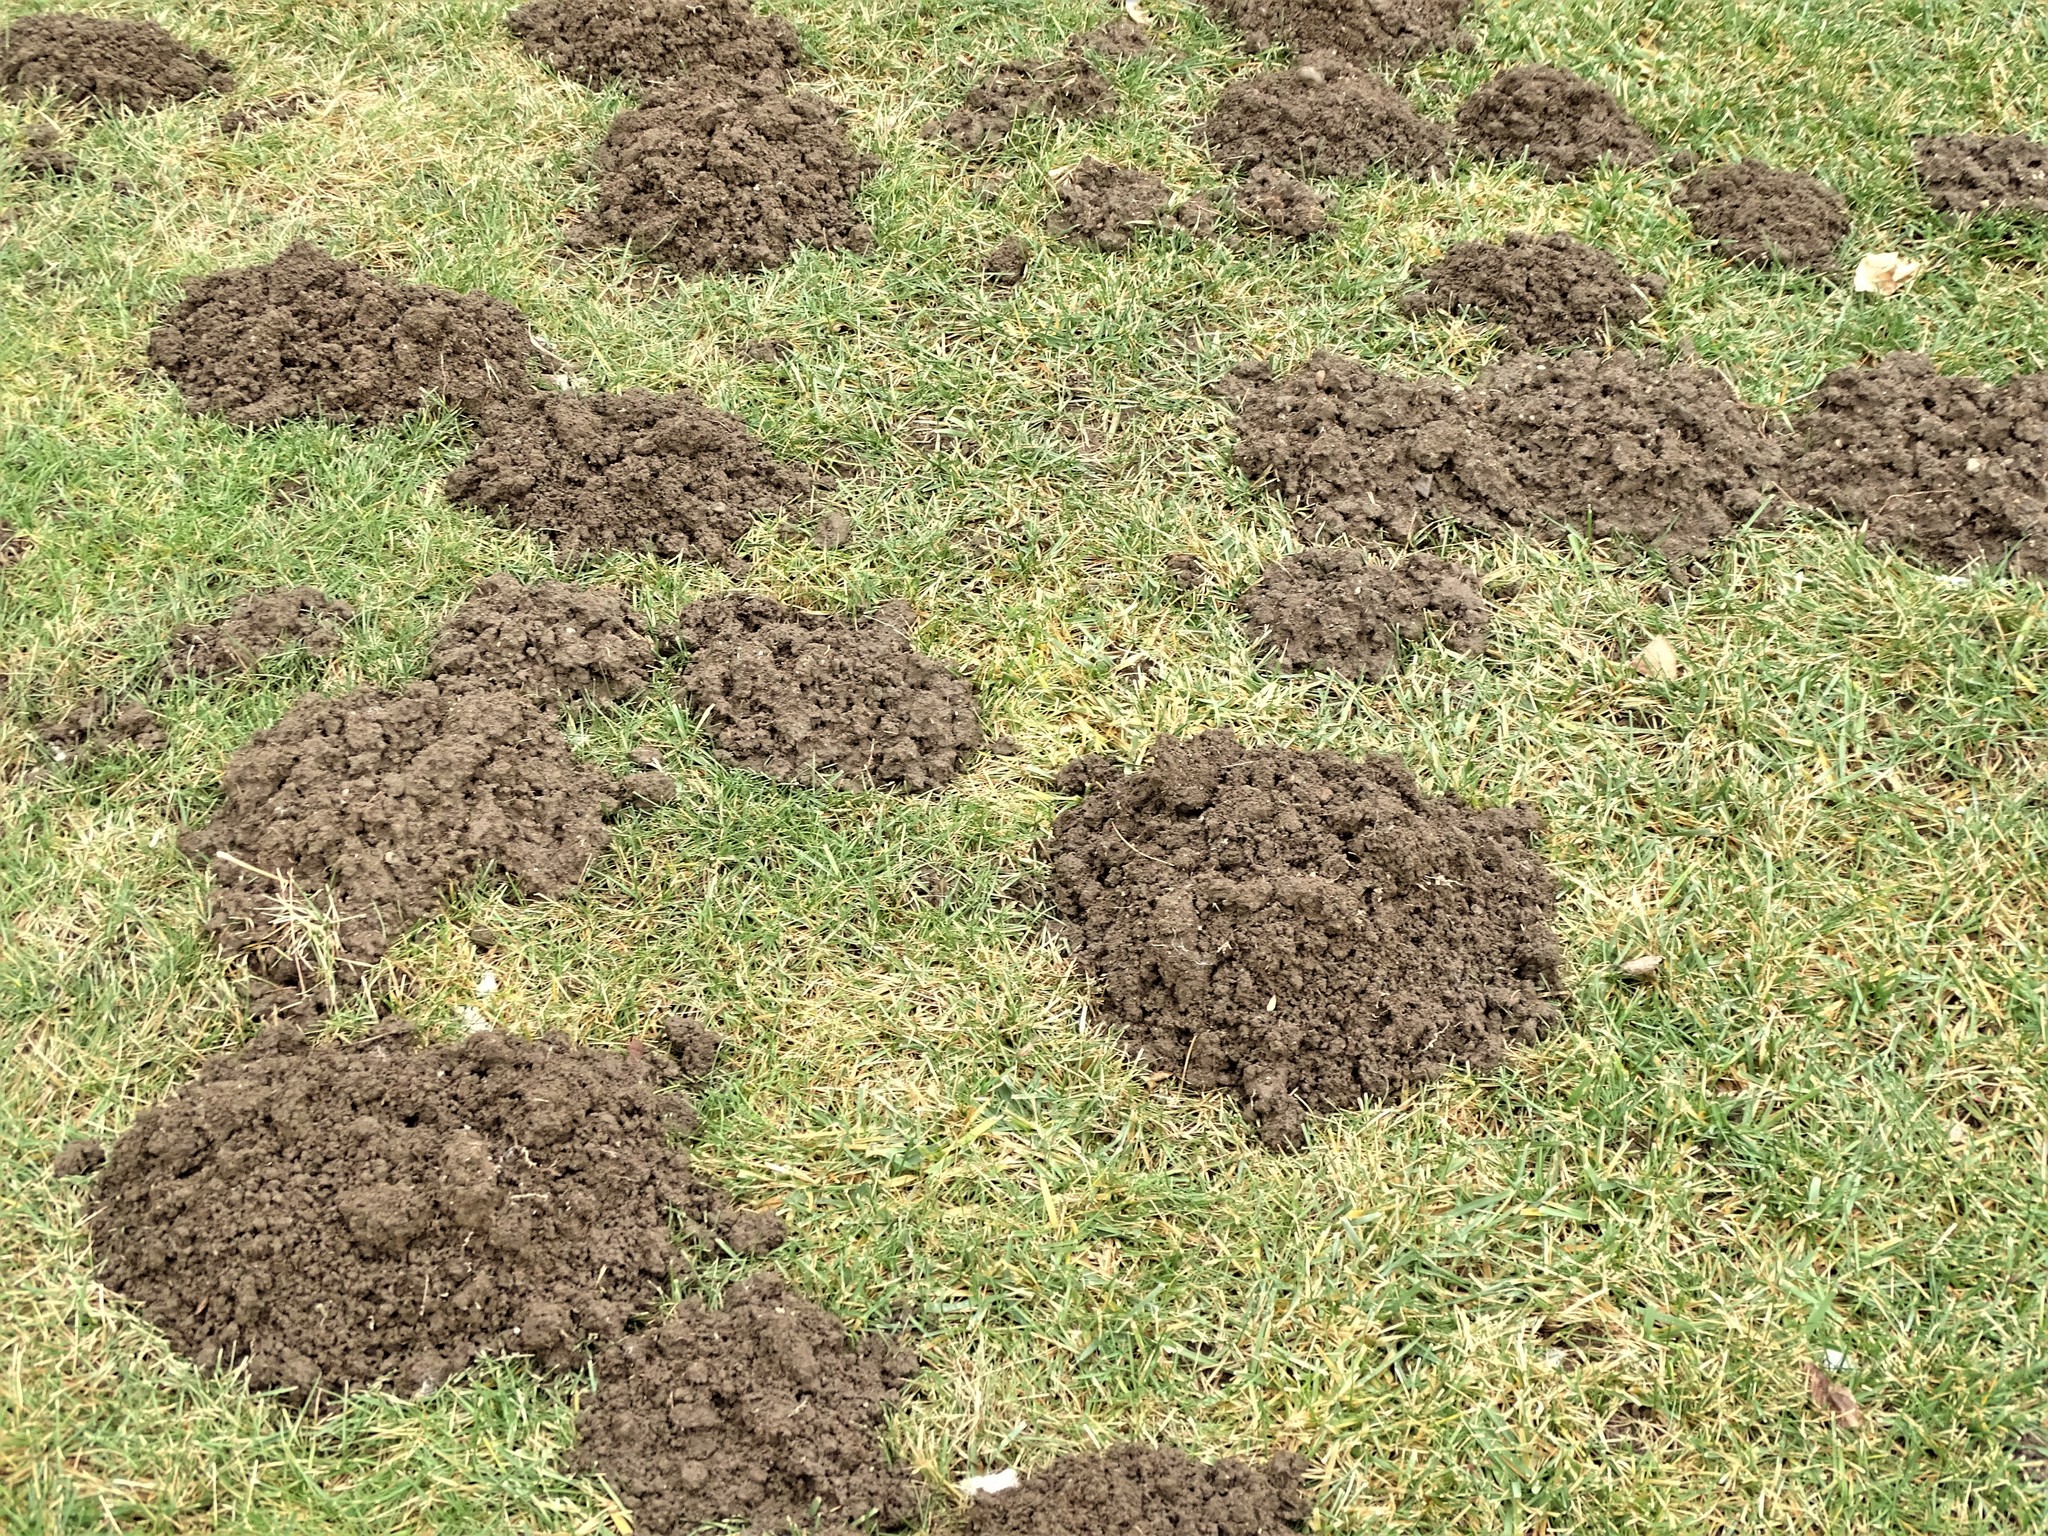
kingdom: Animalia
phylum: Chordata
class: Mammalia
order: Soricomorpha
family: Talpidae
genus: Parascalops
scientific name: Parascalops breweri
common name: Hairy-tailed mole
